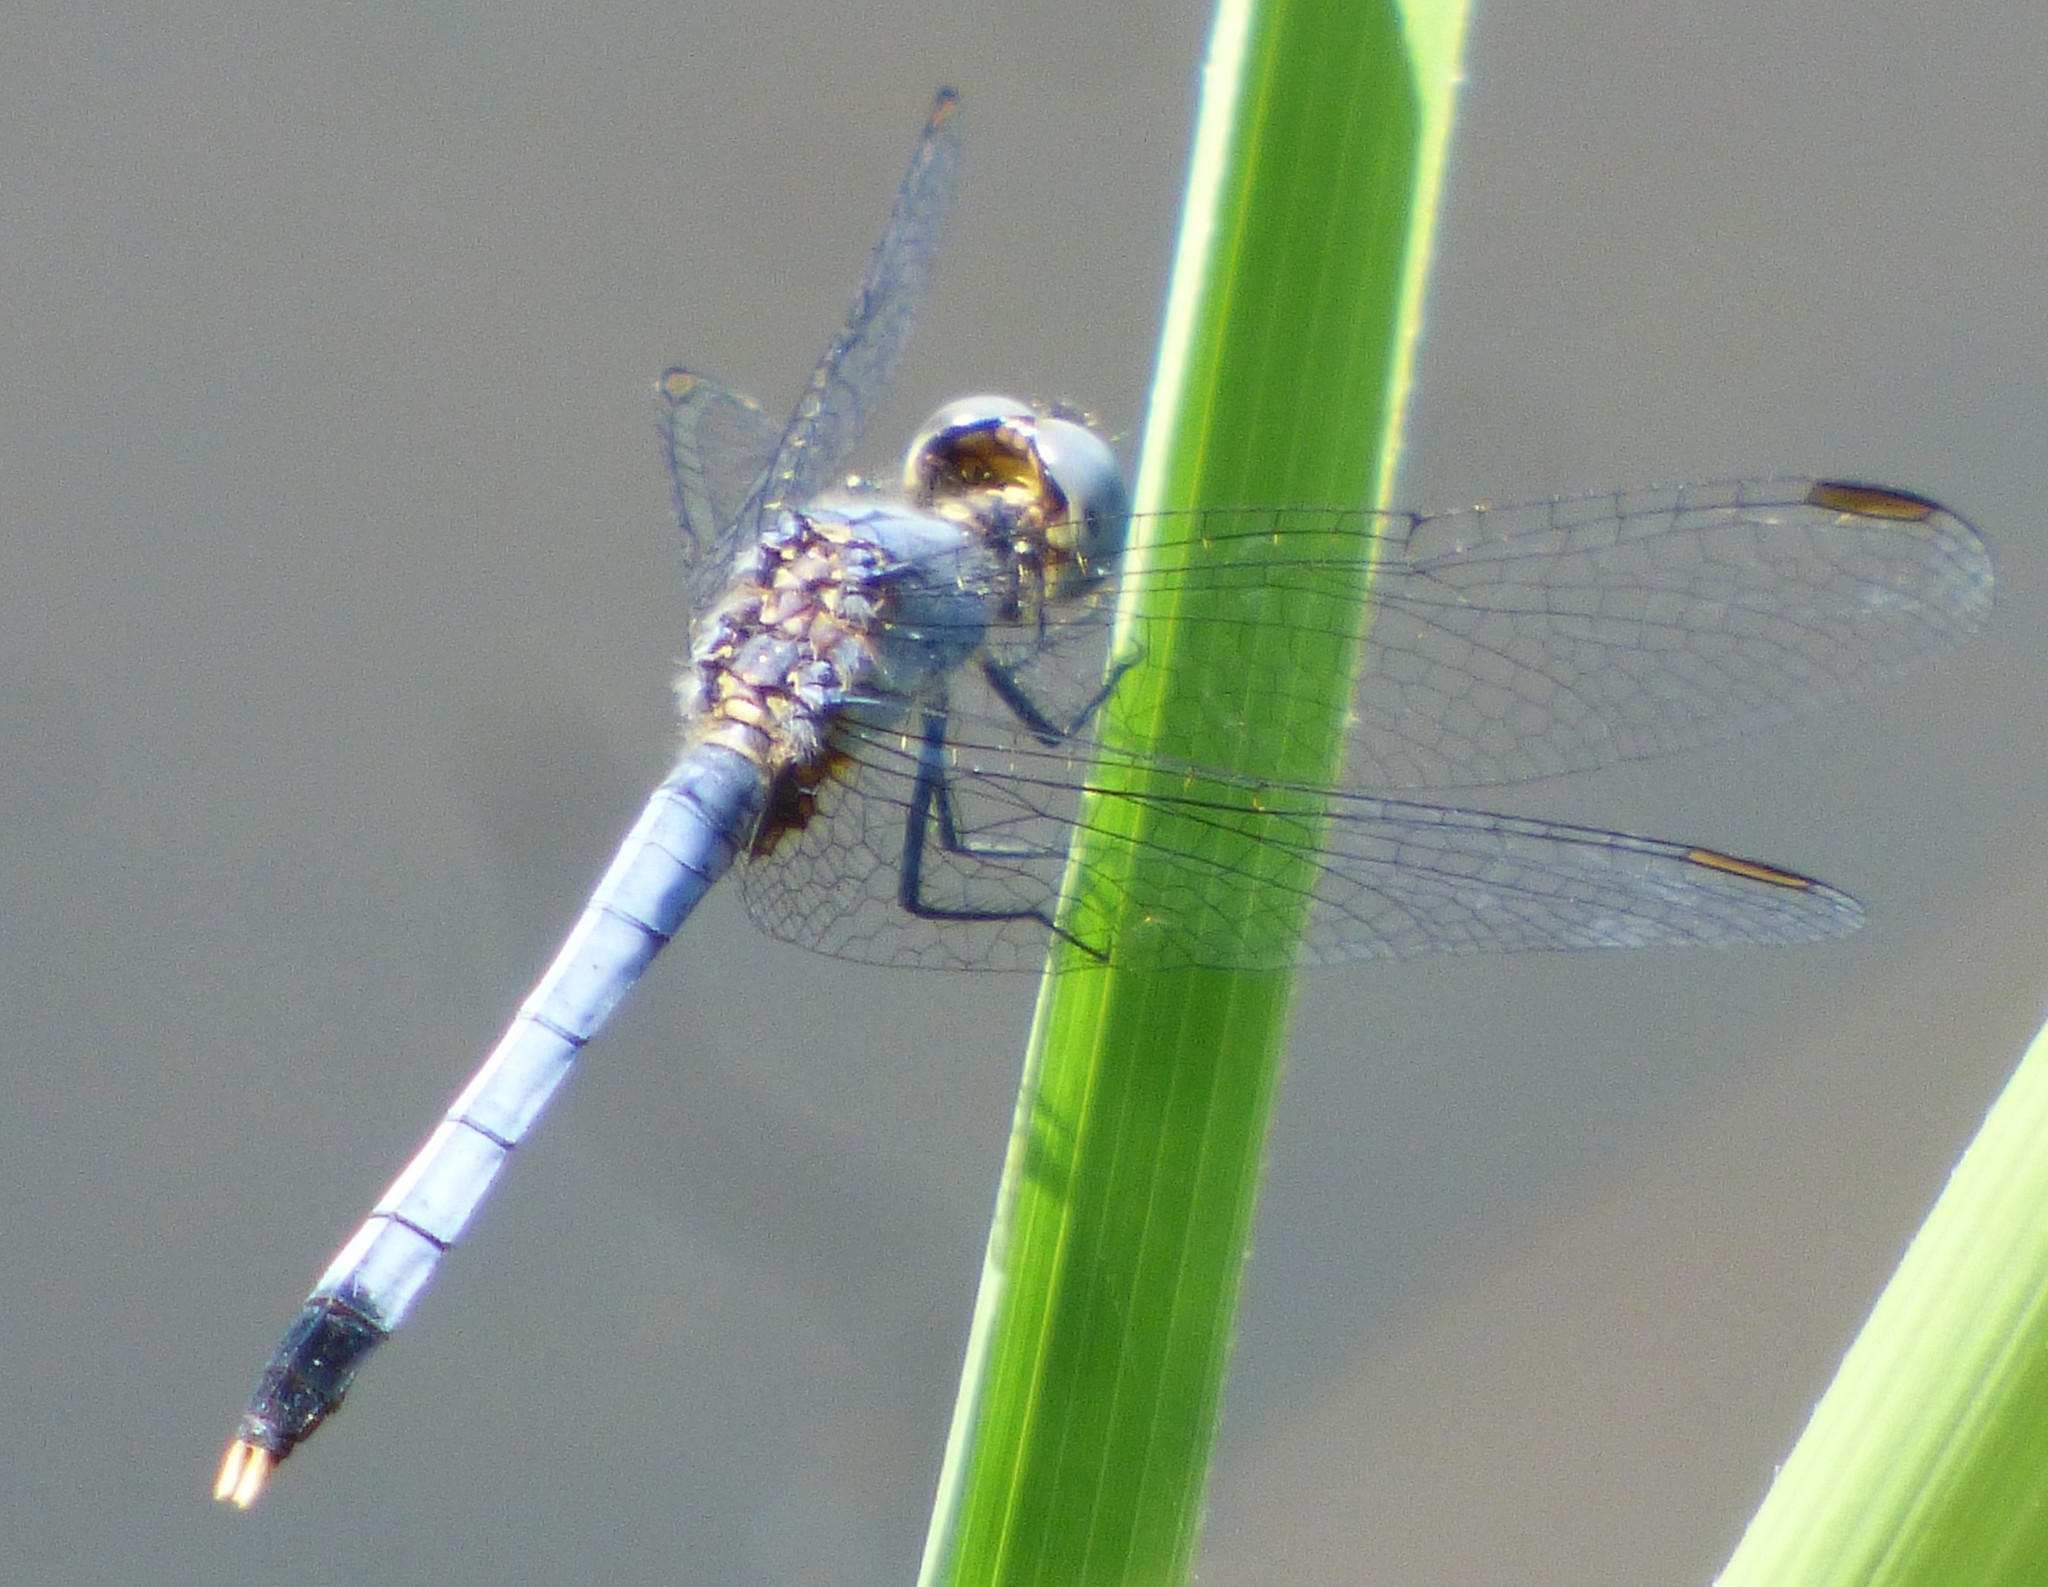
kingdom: Animalia
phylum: Arthropoda
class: Insecta
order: Odonata
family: Libellulidae
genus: Erythrodiplax
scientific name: Erythrodiplax minuscula
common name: Little blue dragonlet
